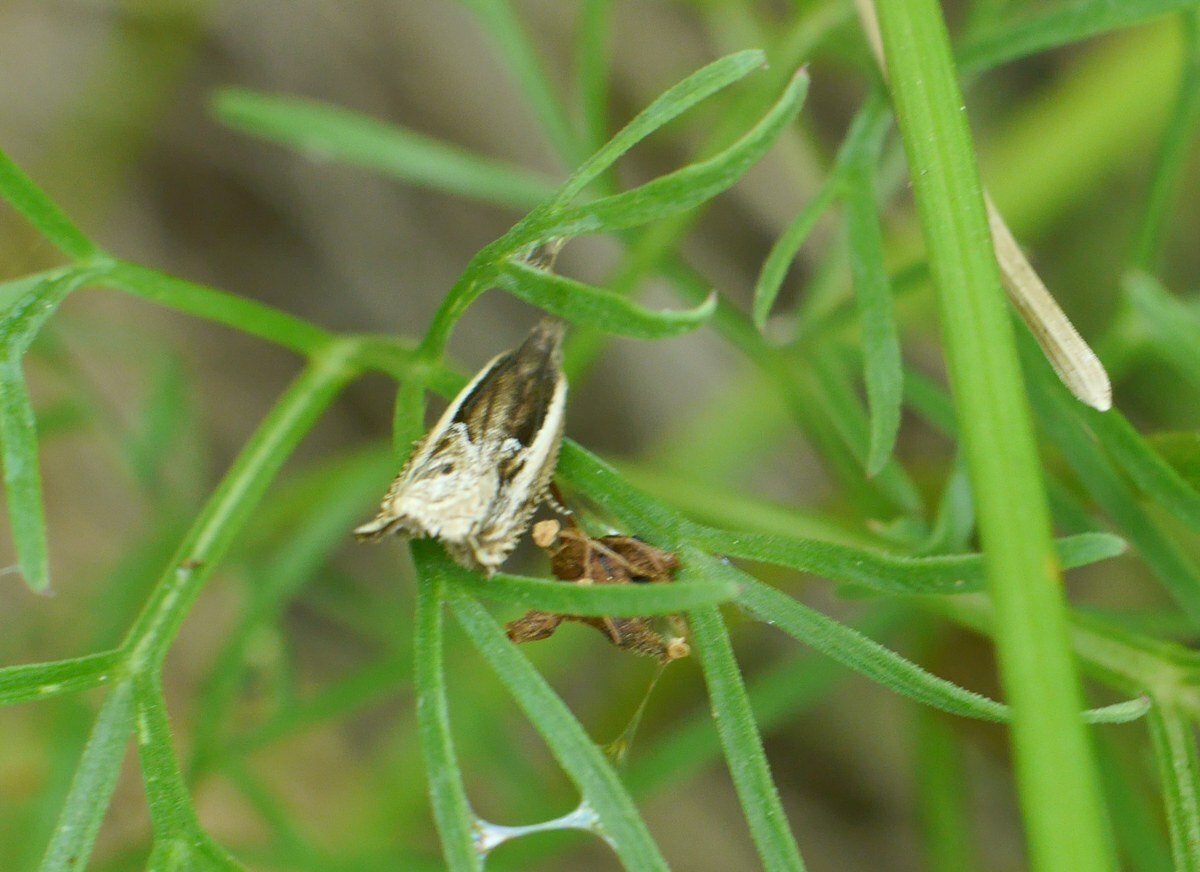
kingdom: Animalia
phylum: Arthropoda
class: Insecta
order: Lepidoptera
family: Tortricidae
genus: Ancylis
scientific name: Ancylis apicella
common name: Hook-tipped roller
